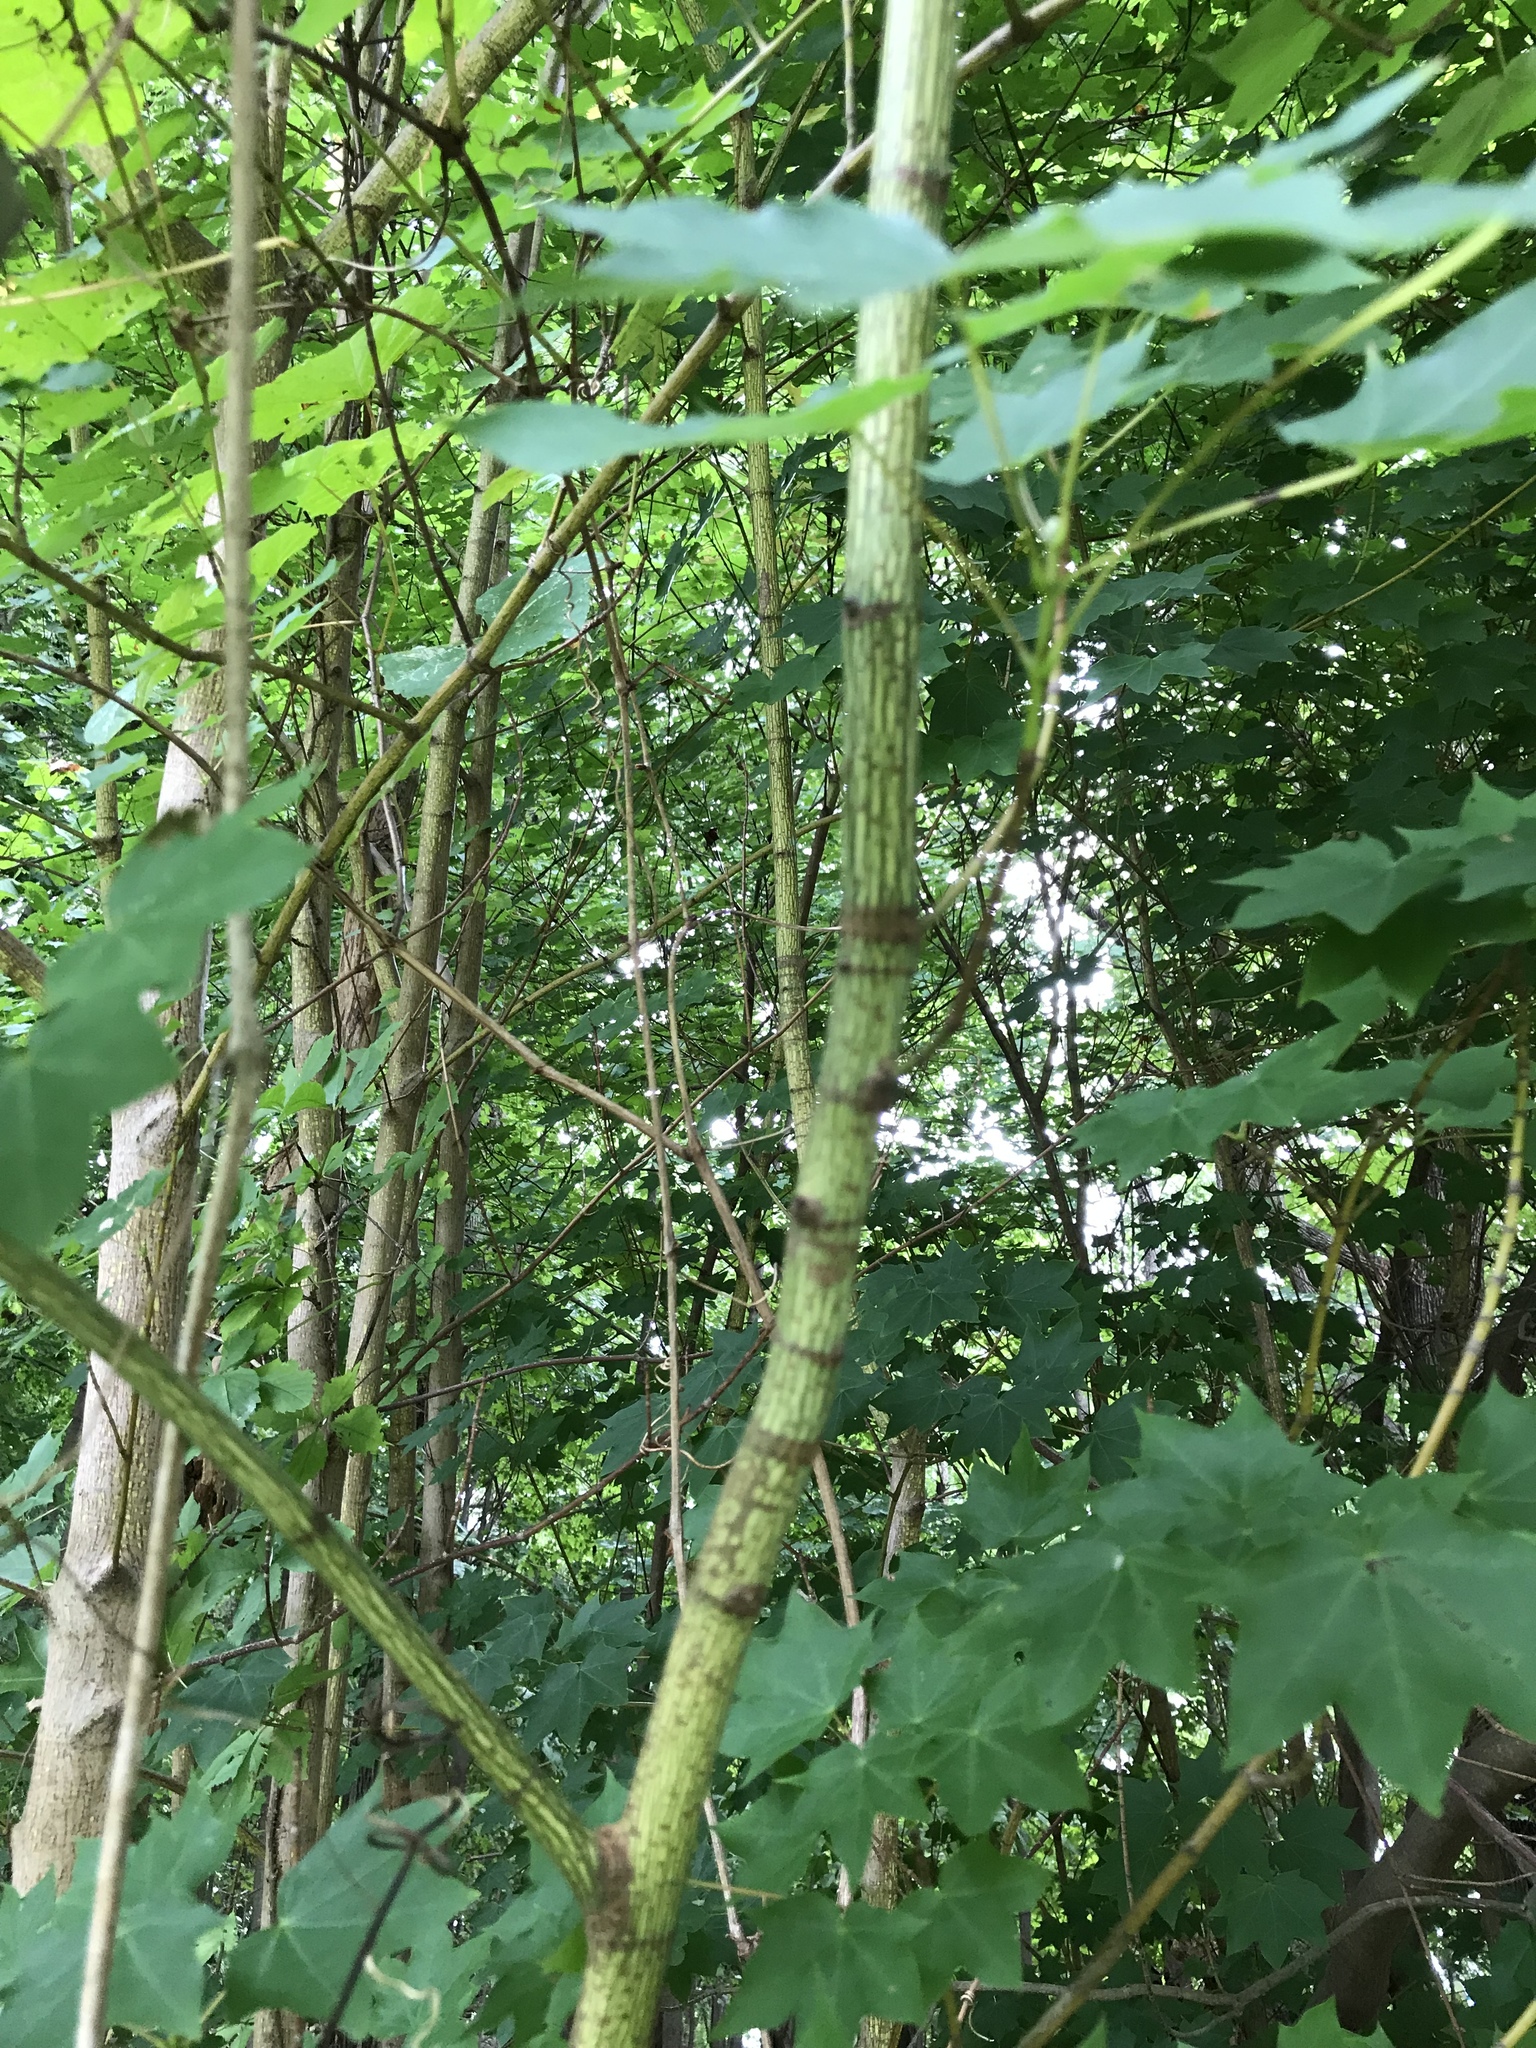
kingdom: Plantae
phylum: Tracheophyta
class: Magnoliopsida
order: Sapindales
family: Sapindaceae
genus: Acer
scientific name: Acer pictum
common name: The painted maple
